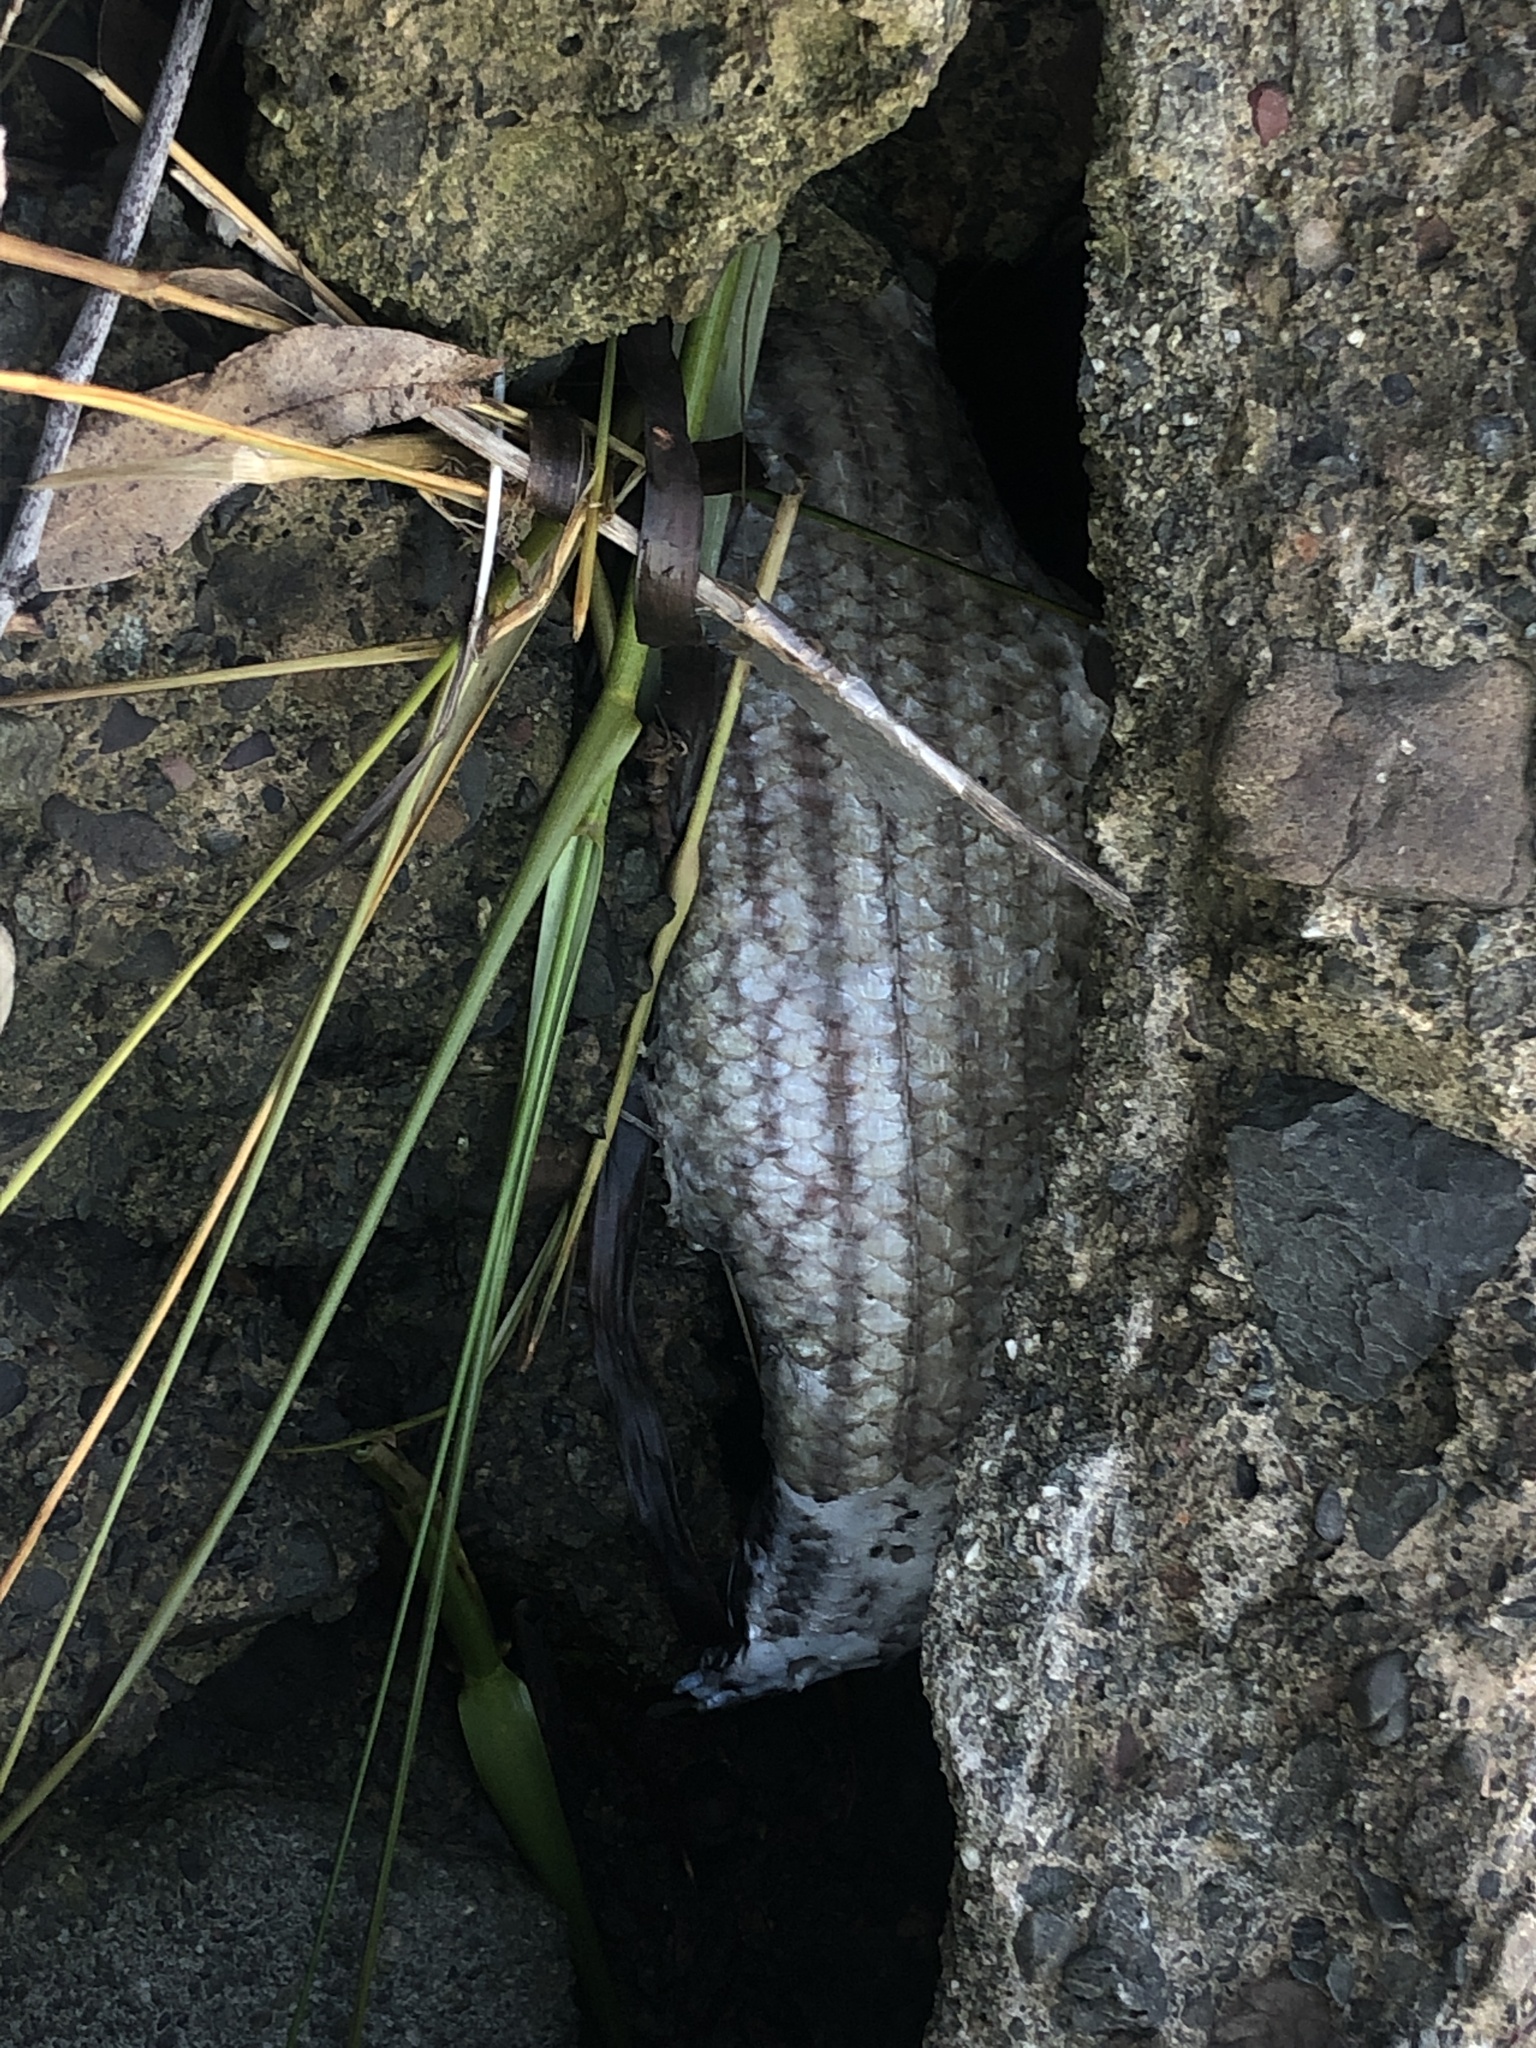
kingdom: Animalia
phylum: Chordata
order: Perciformes
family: Moronidae
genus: Morone
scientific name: Morone saxatilis
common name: Striped bass
